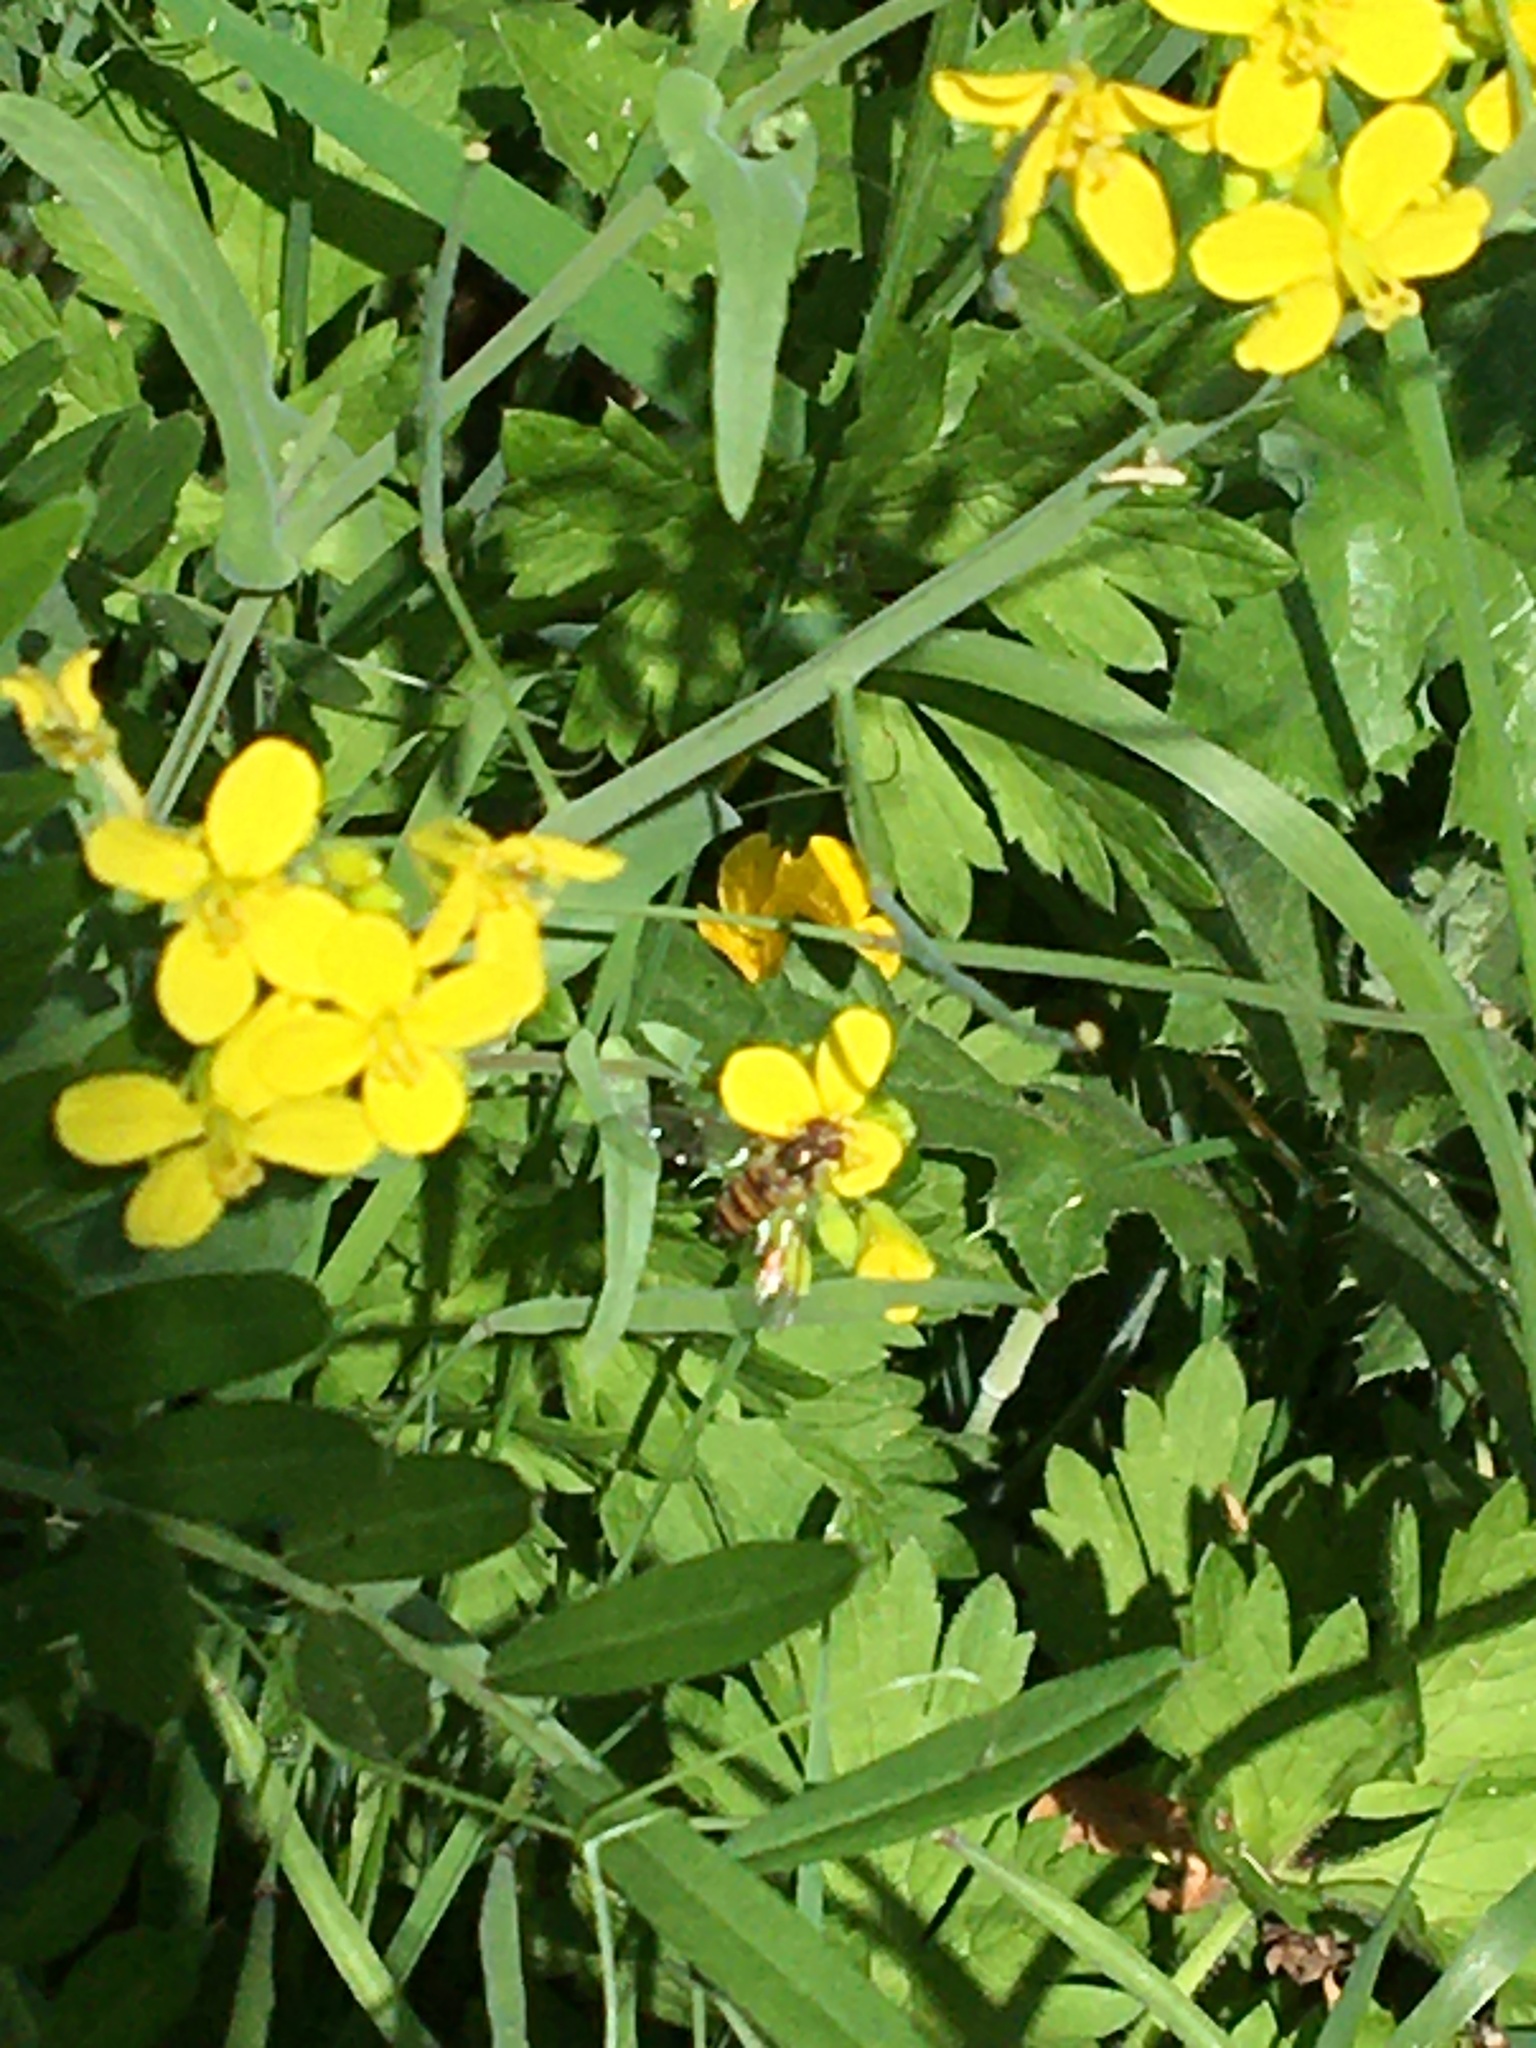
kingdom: Animalia
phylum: Arthropoda
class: Insecta
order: Diptera
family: Syrphidae
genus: Episyrphus
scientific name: Episyrphus balteatus
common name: Marmalade hoverfly
